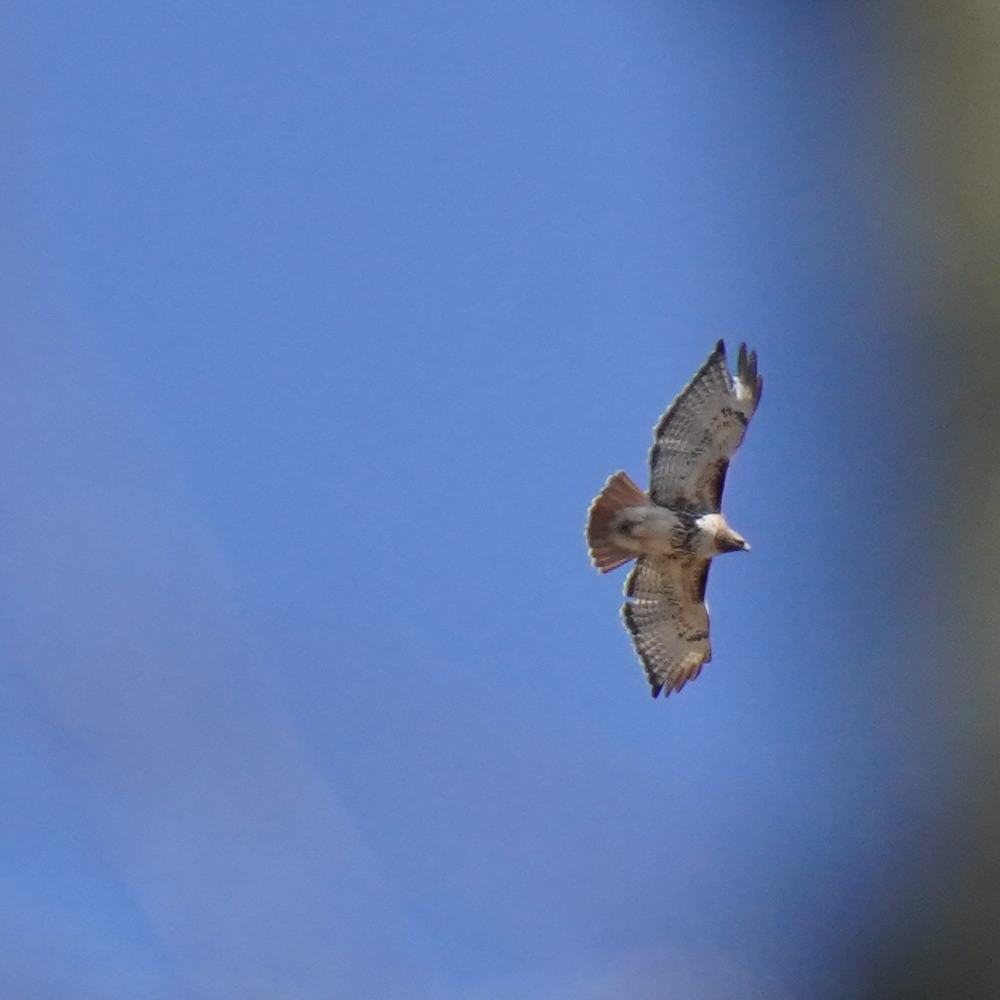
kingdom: Animalia
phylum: Chordata
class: Aves
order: Accipitriformes
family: Accipitridae
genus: Buteo
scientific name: Buteo jamaicensis
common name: Red-tailed hawk
